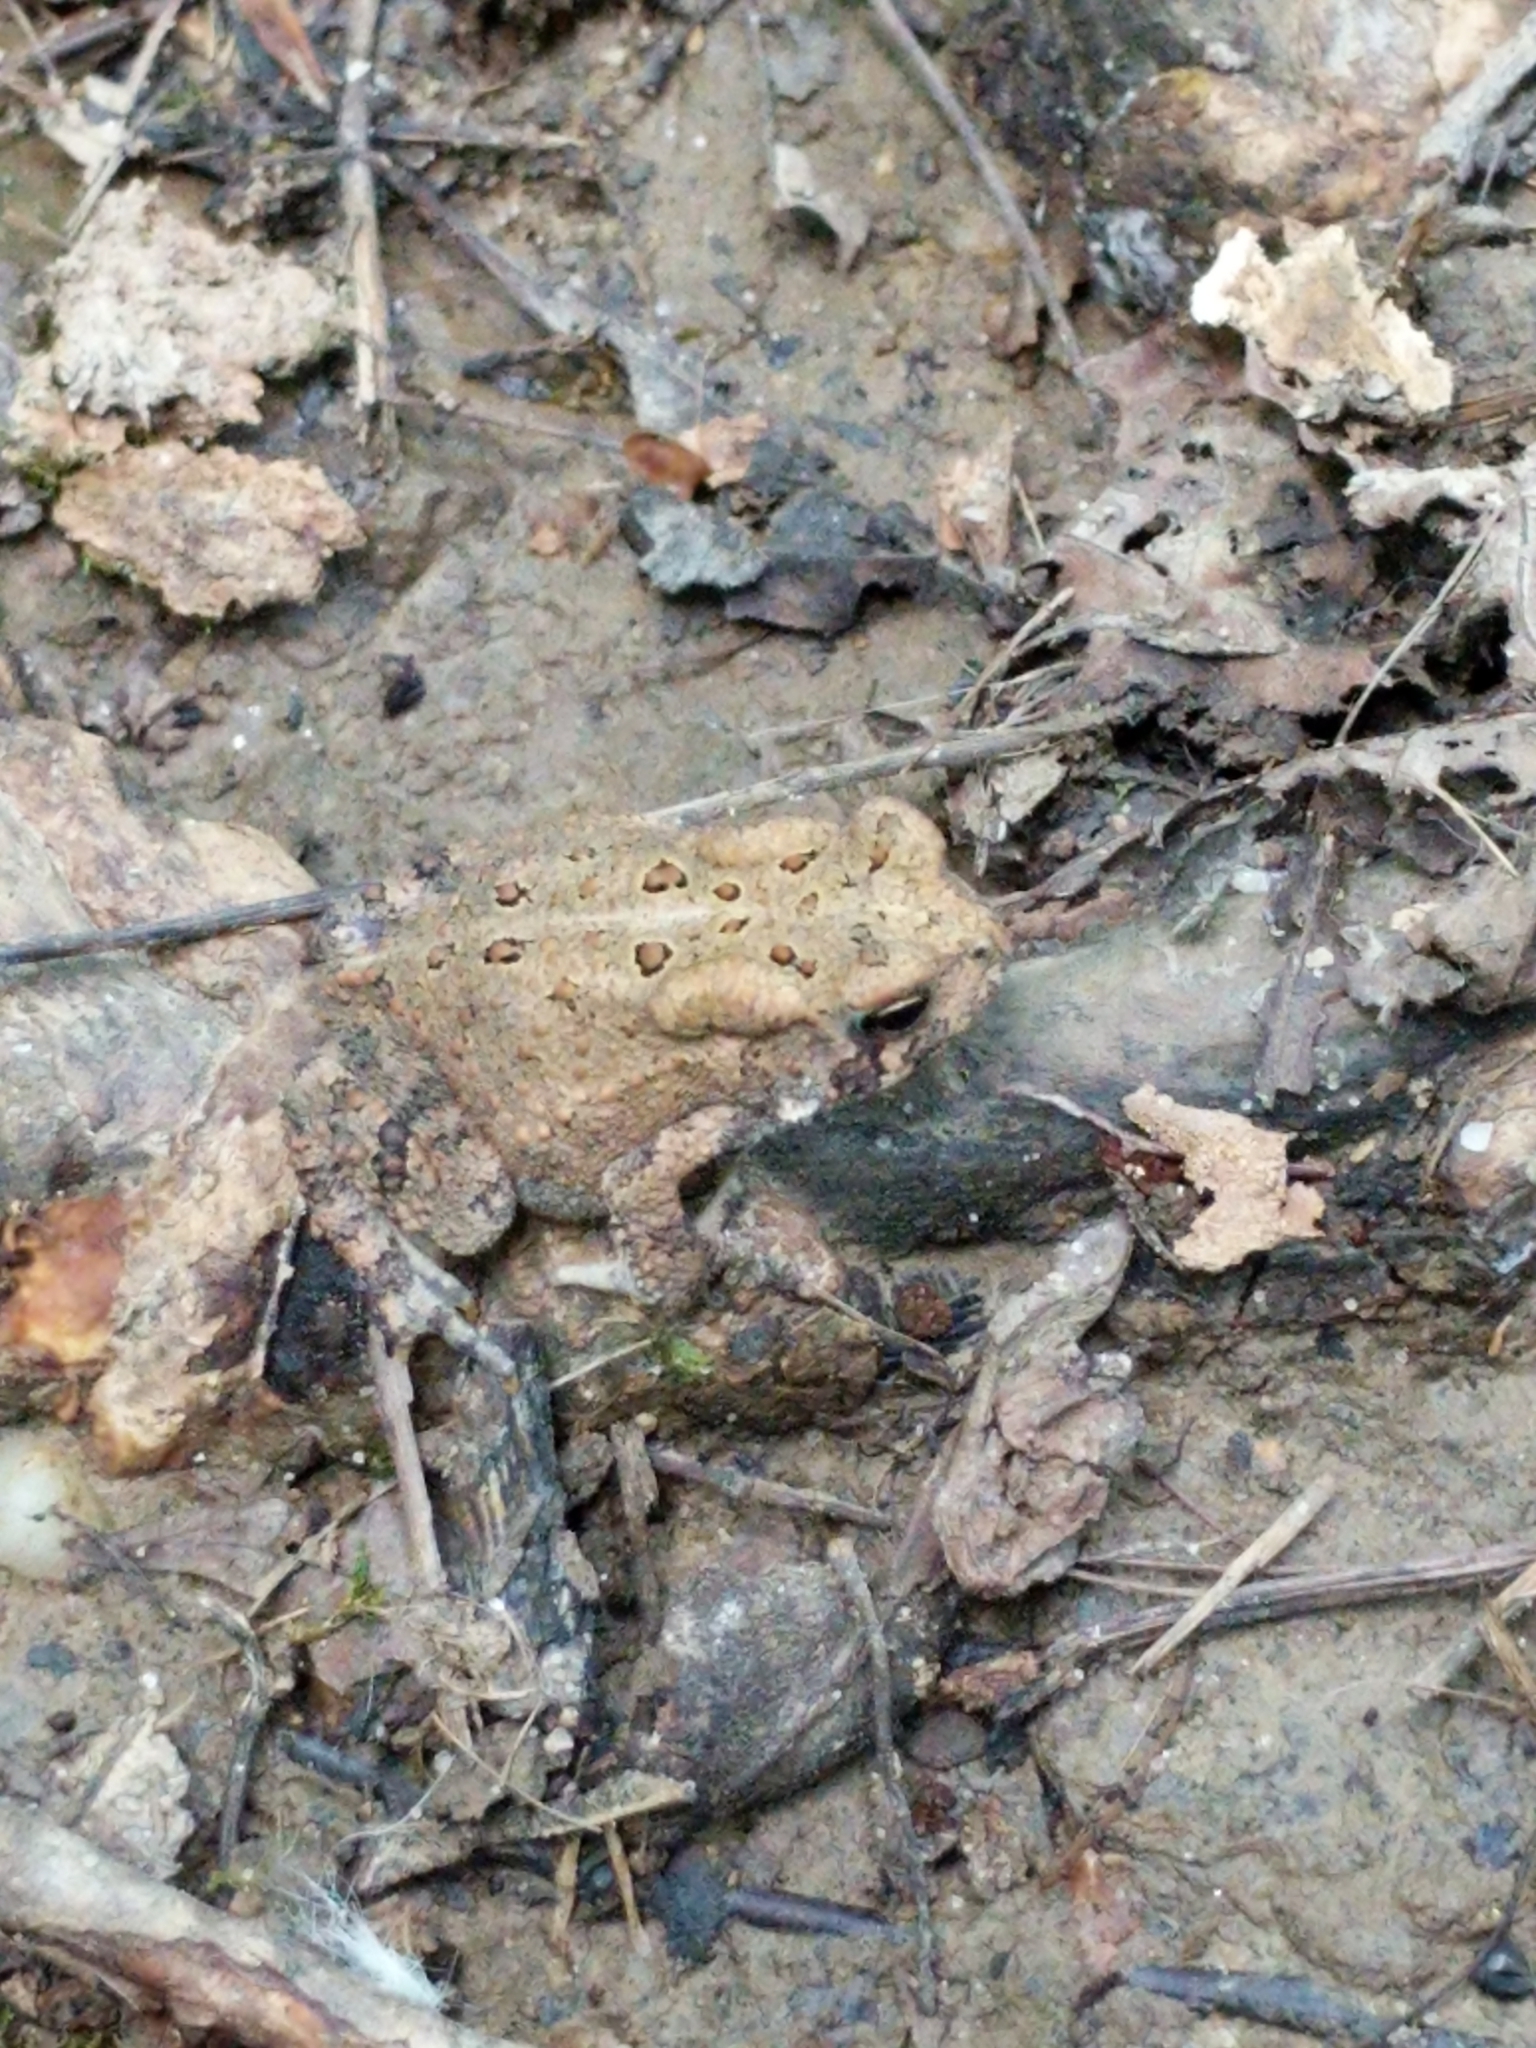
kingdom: Animalia
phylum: Chordata
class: Amphibia
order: Anura
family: Bufonidae
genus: Anaxyrus
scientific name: Anaxyrus americanus
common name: American toad
